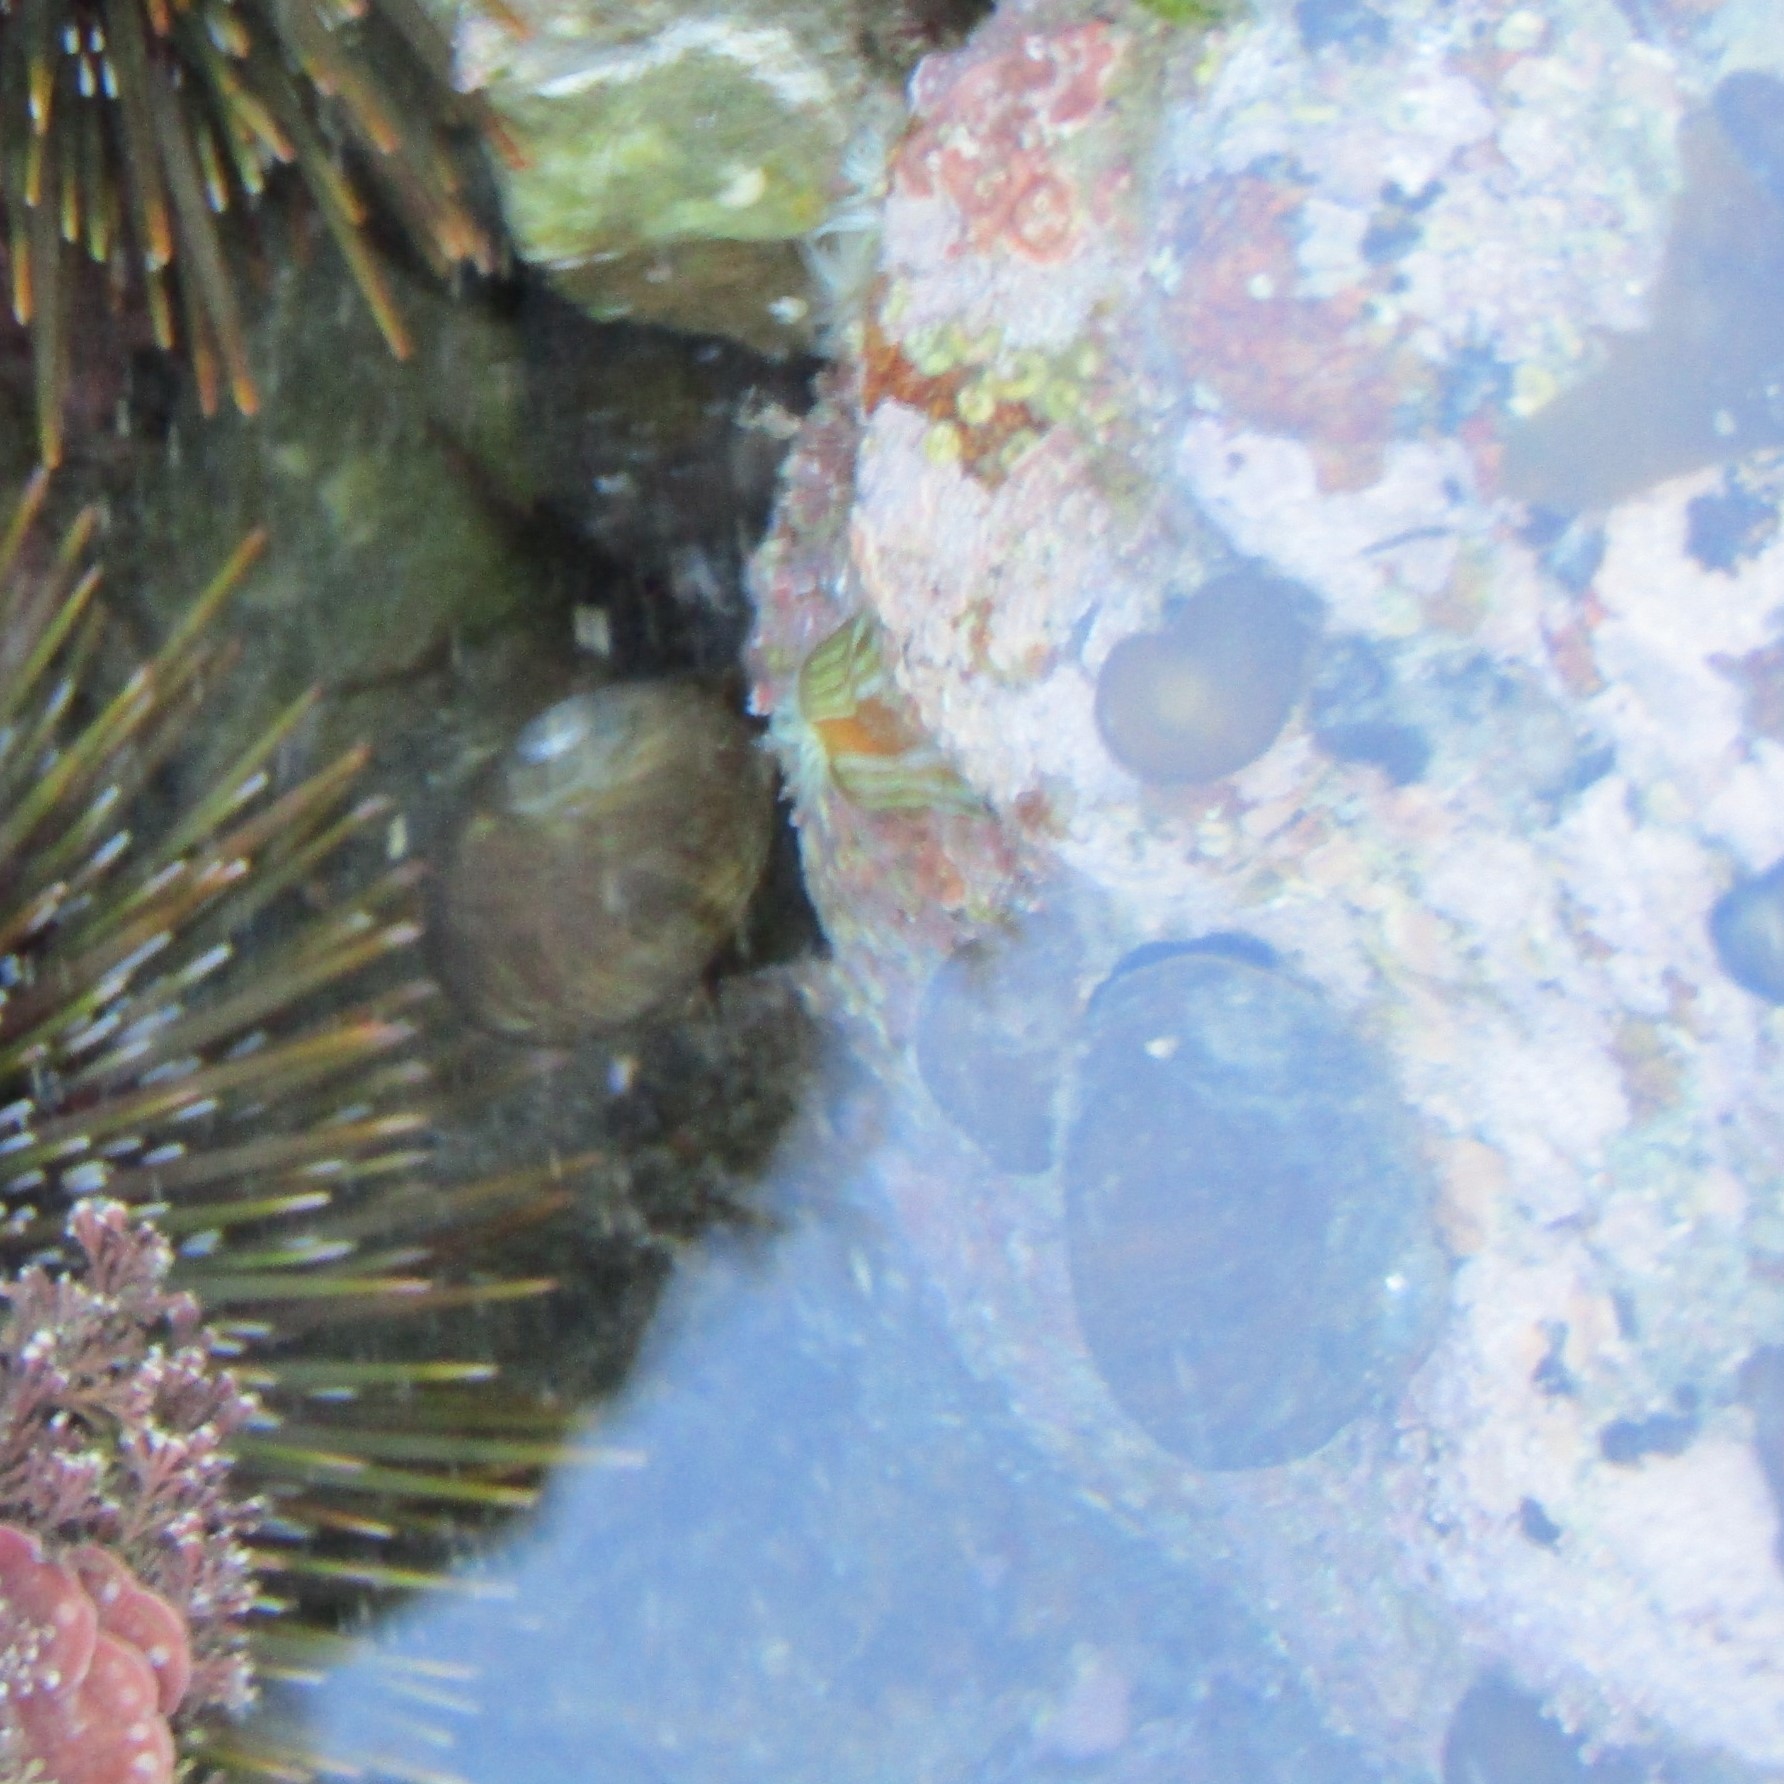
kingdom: Animalia
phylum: Mollusca
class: Gastropoda
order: Trochida
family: Turbinidae
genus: Lunella
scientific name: Lunella smaragda
